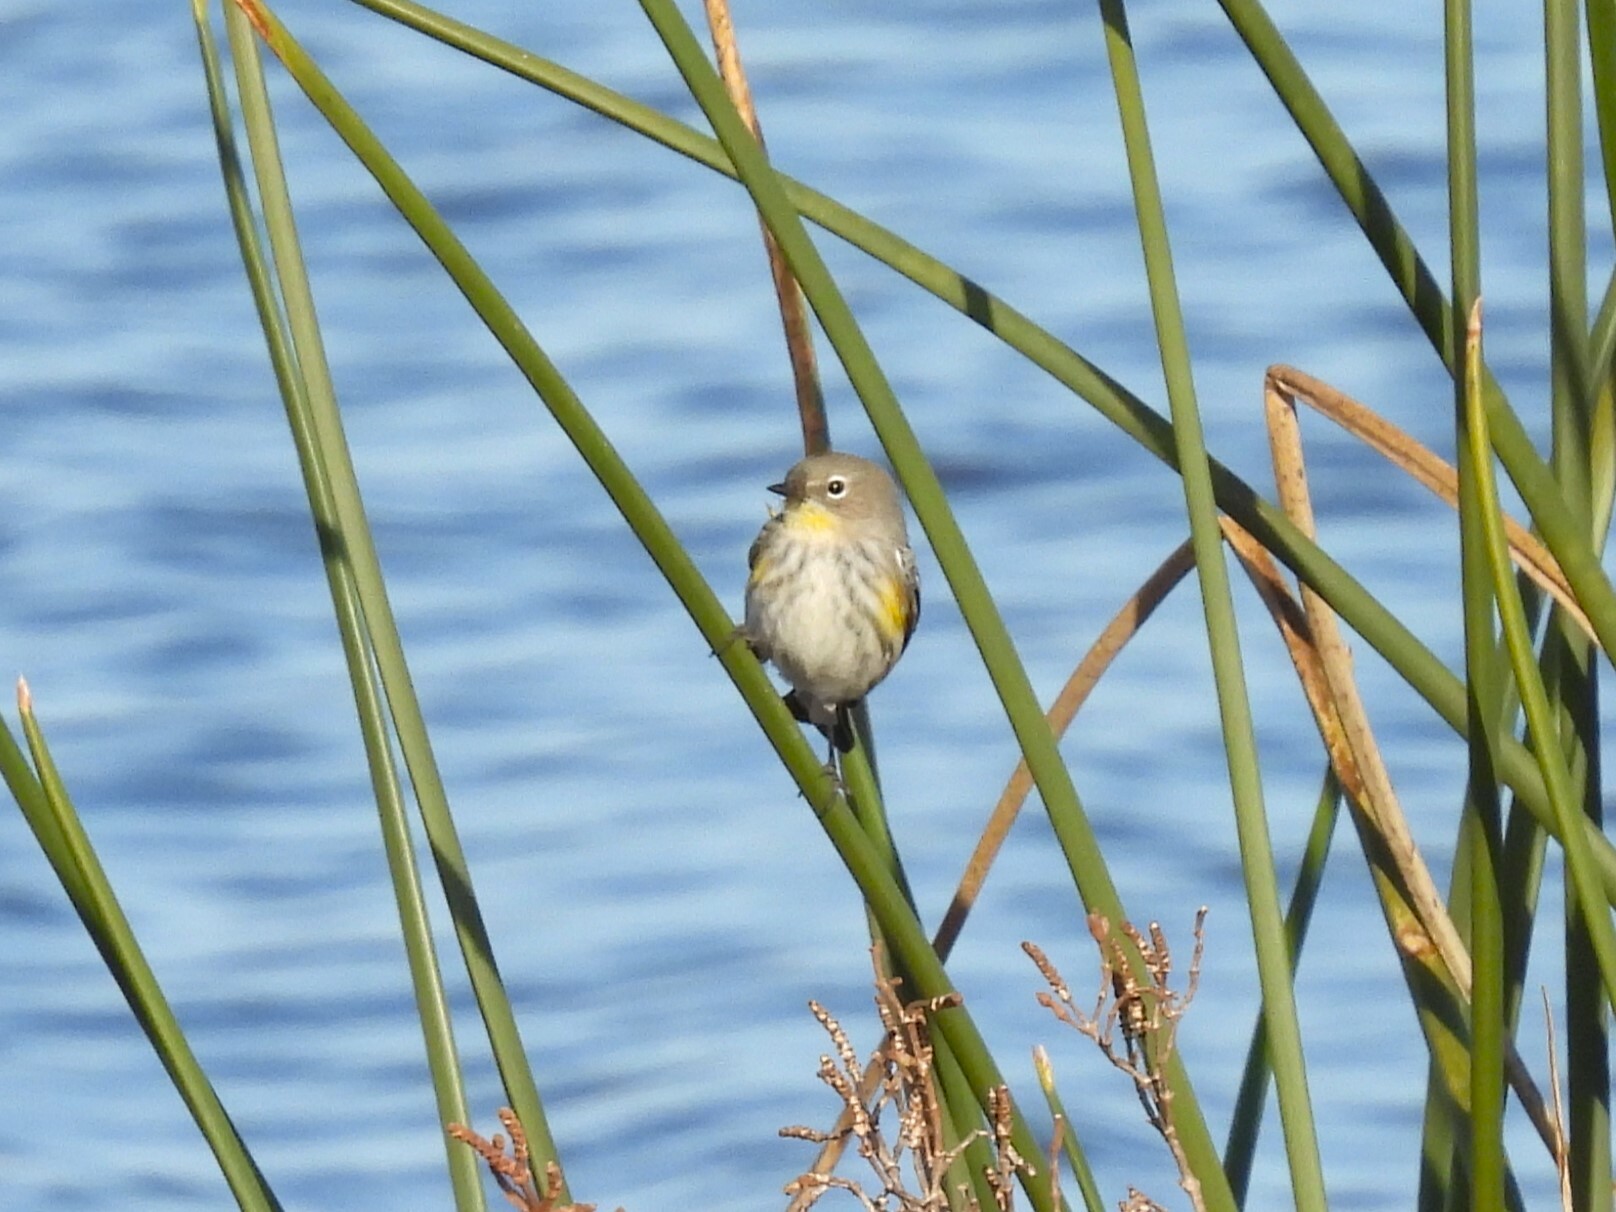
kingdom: Animalia
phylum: Chordata
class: Aves
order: Passeriformes
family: Parulidae
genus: Setophaga
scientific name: Setophaga coronata
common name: Myrtle warbler
